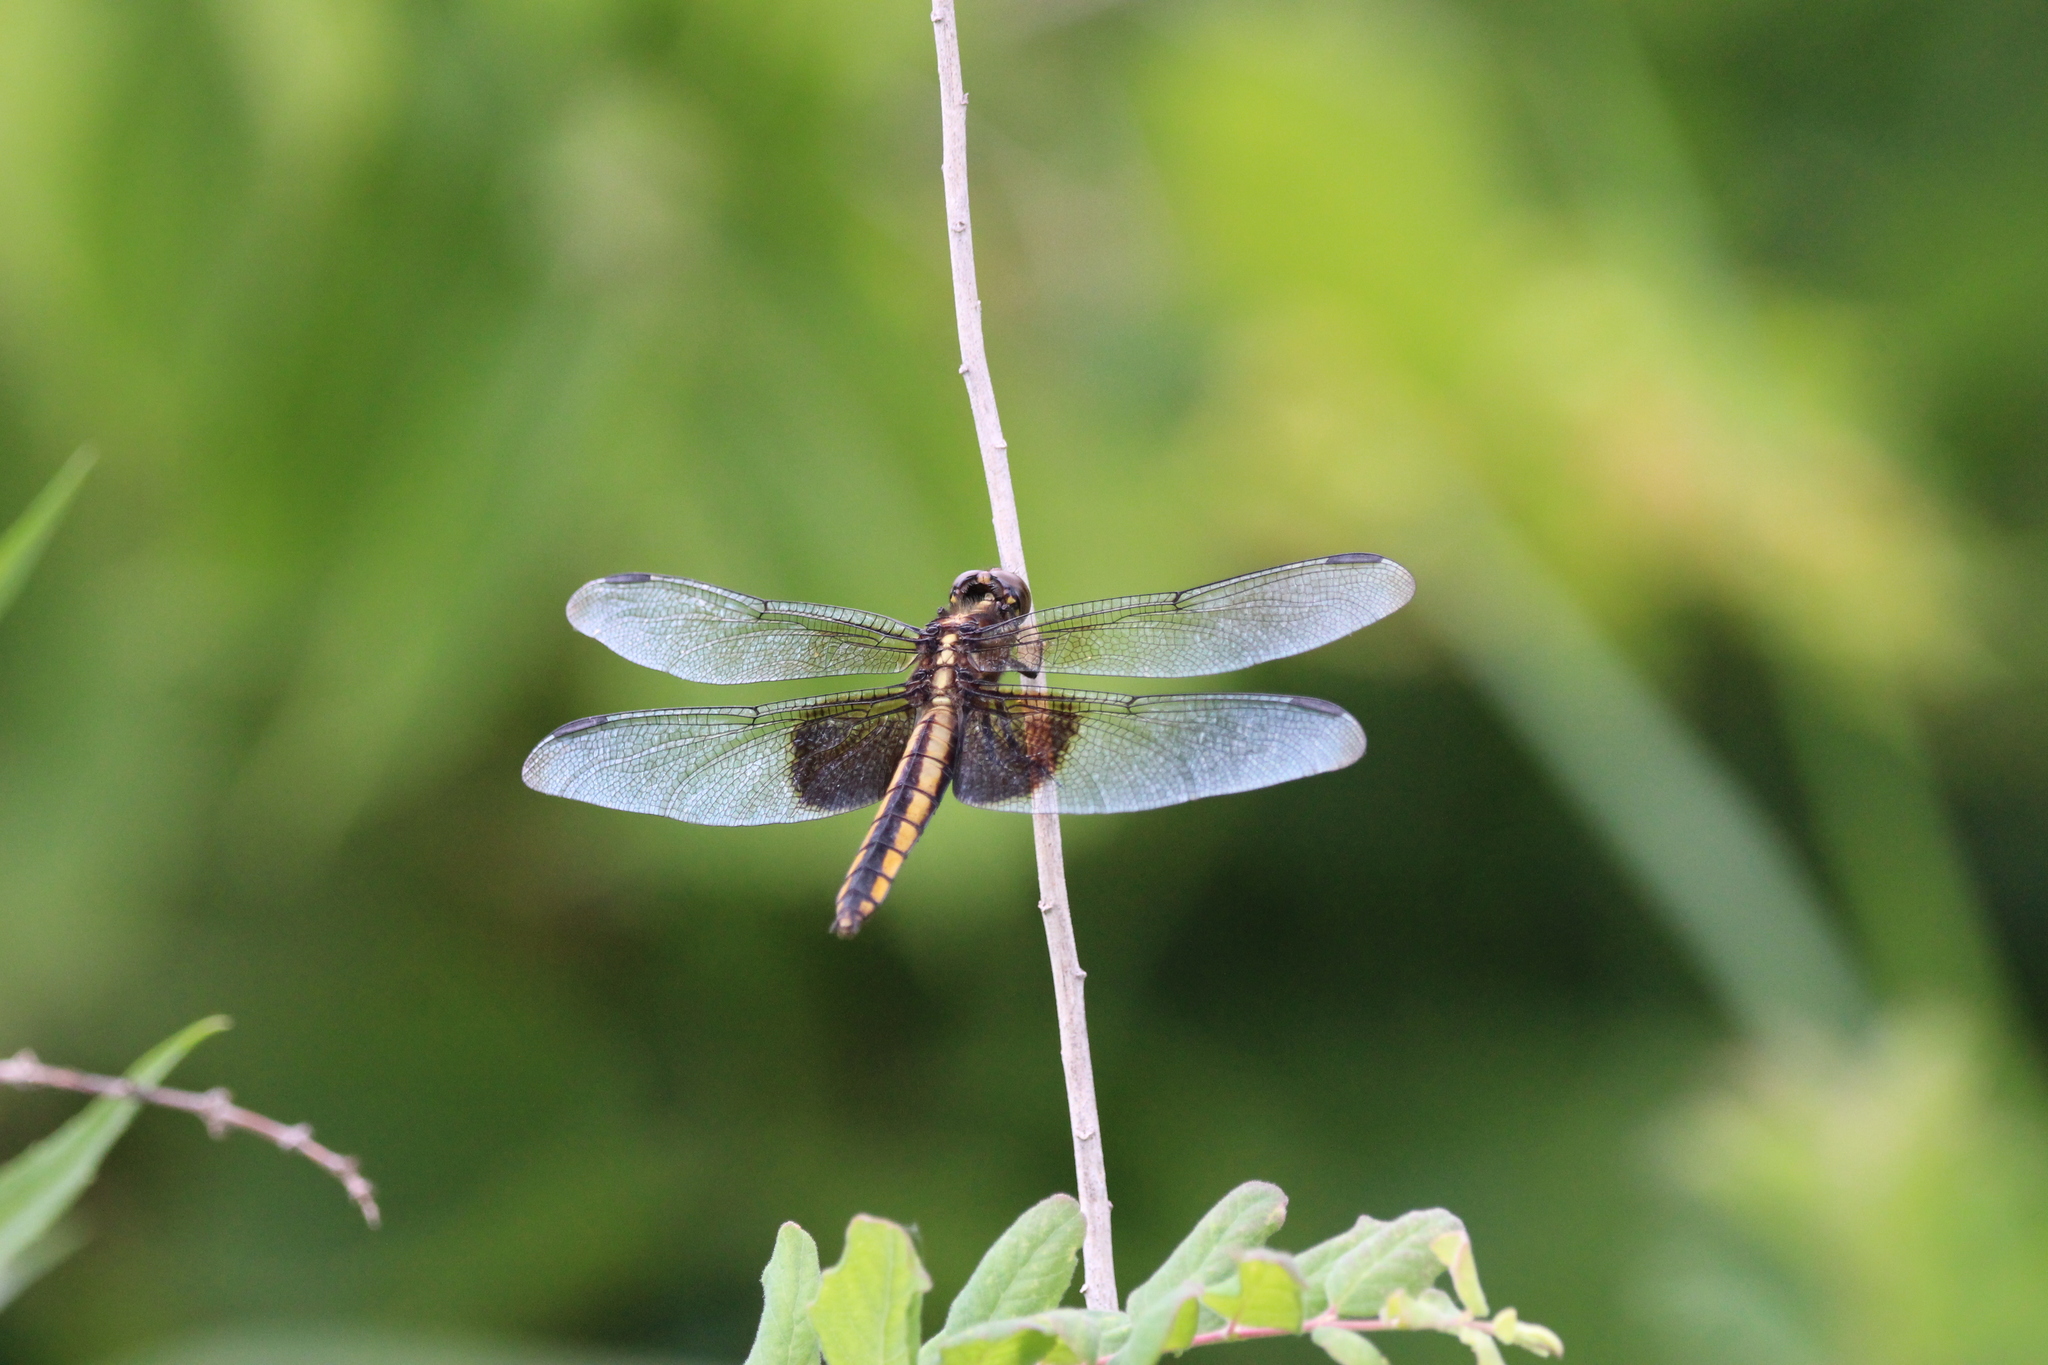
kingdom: Animalia
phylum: Arthropoda
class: Insecta
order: Odonata
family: Libellulidae
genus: Libellula
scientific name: Libellula luctuosa
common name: Widow skimmer
